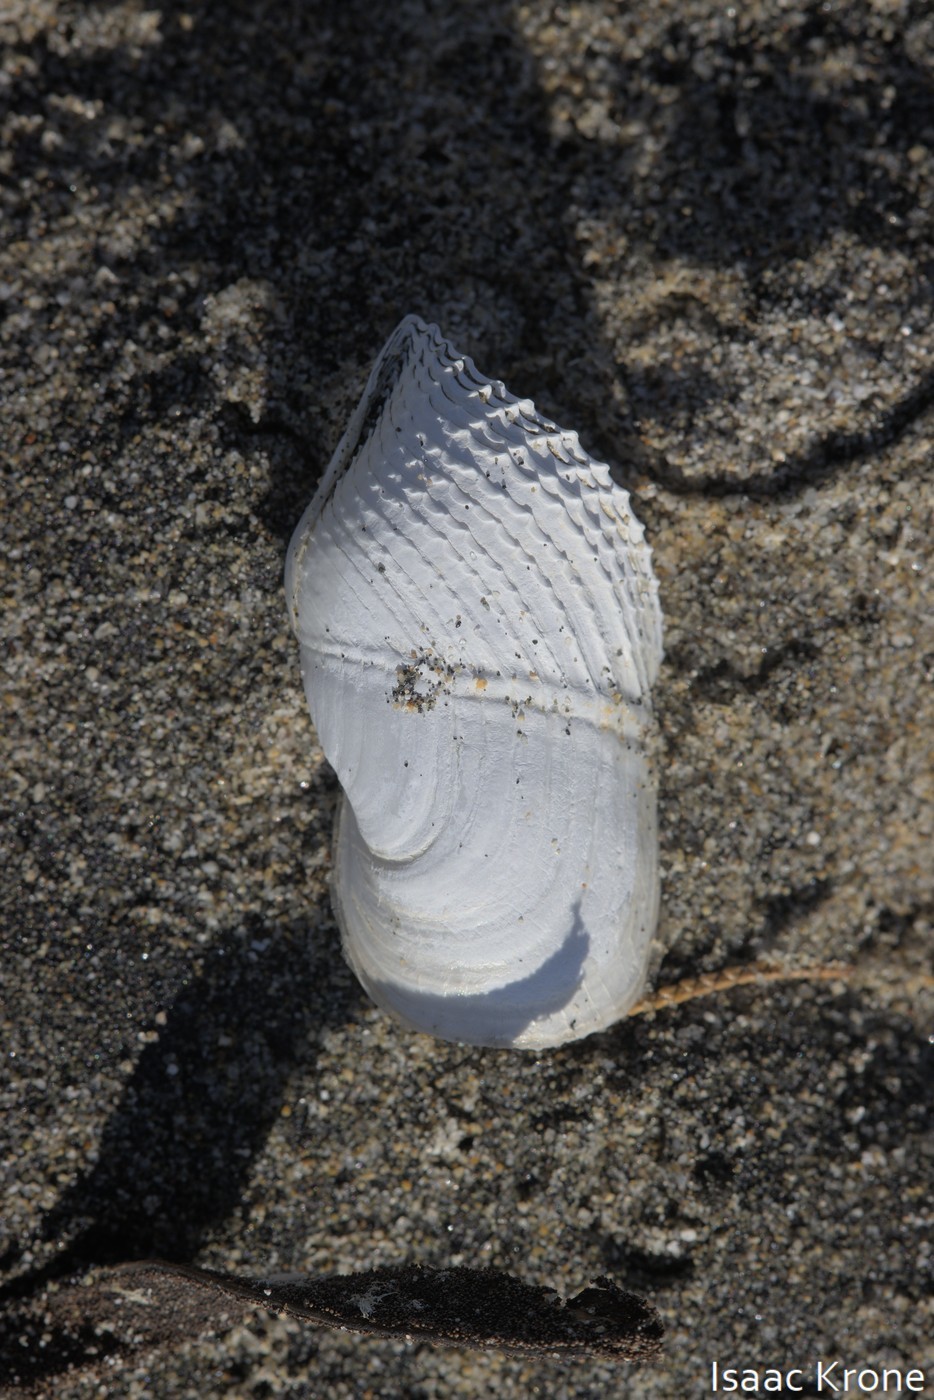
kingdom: Animalia
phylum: Mollusca
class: Bivalvia
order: Myida
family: Pholadidae
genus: Zirfaea
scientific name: Zirfaea pilsbryi
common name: Rough piddock
